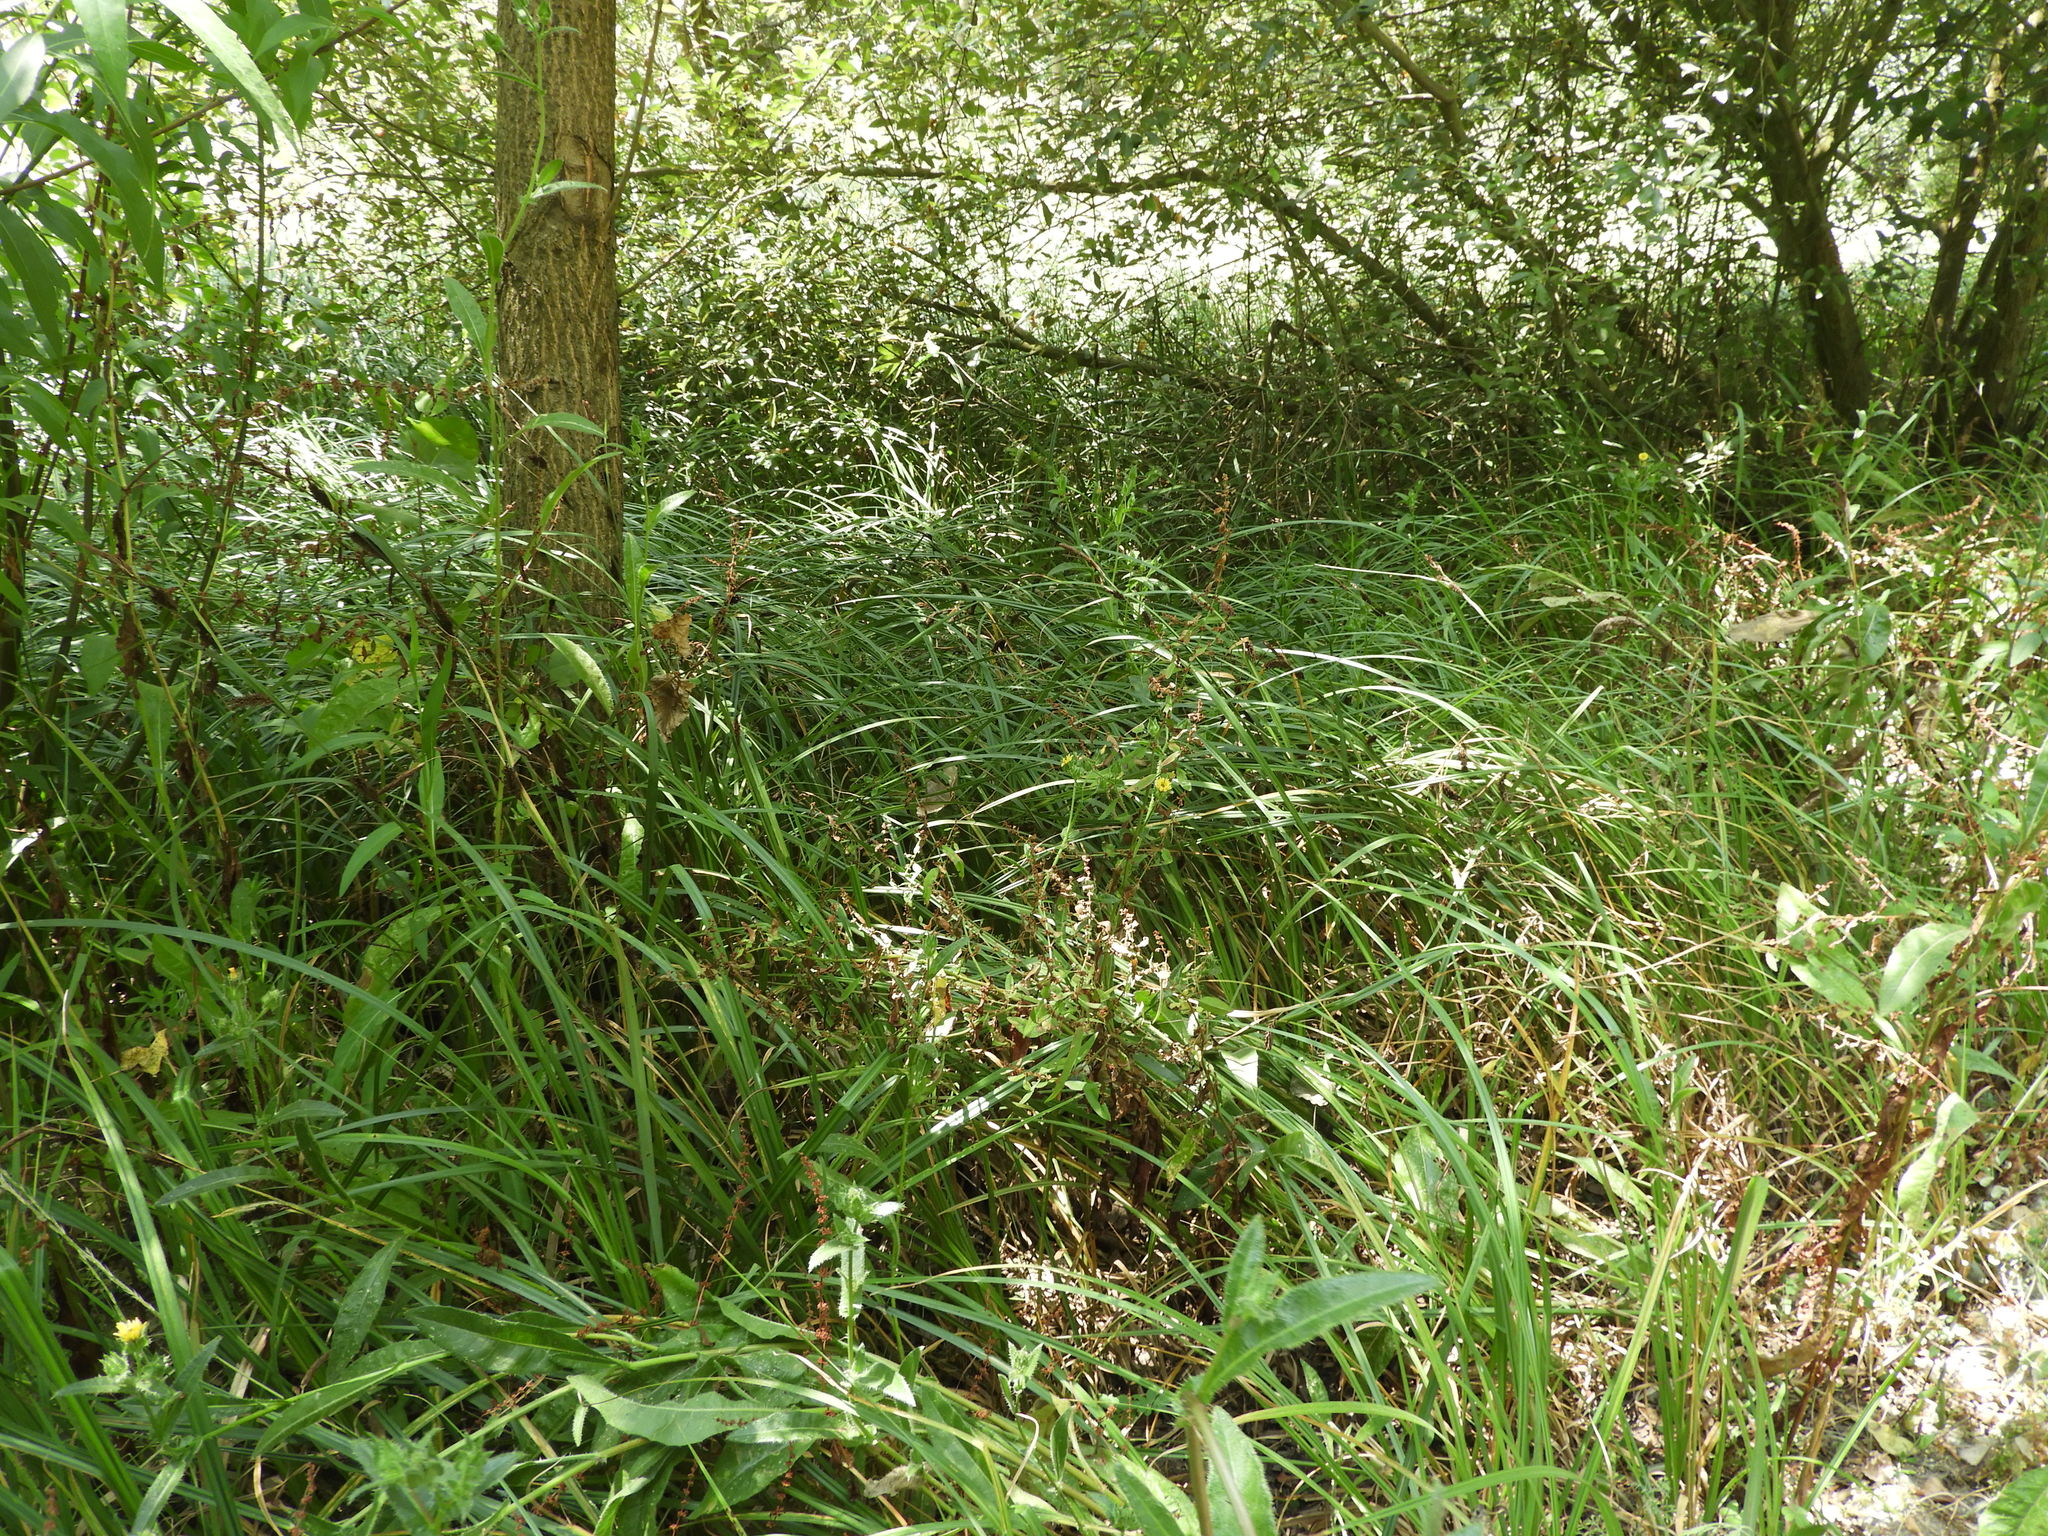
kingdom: Plantae
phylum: Tracheophyta
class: Liliopsida
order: Poales
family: Cyperaceae
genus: Carex
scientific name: Carex riparia
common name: Greater pond-sedge
